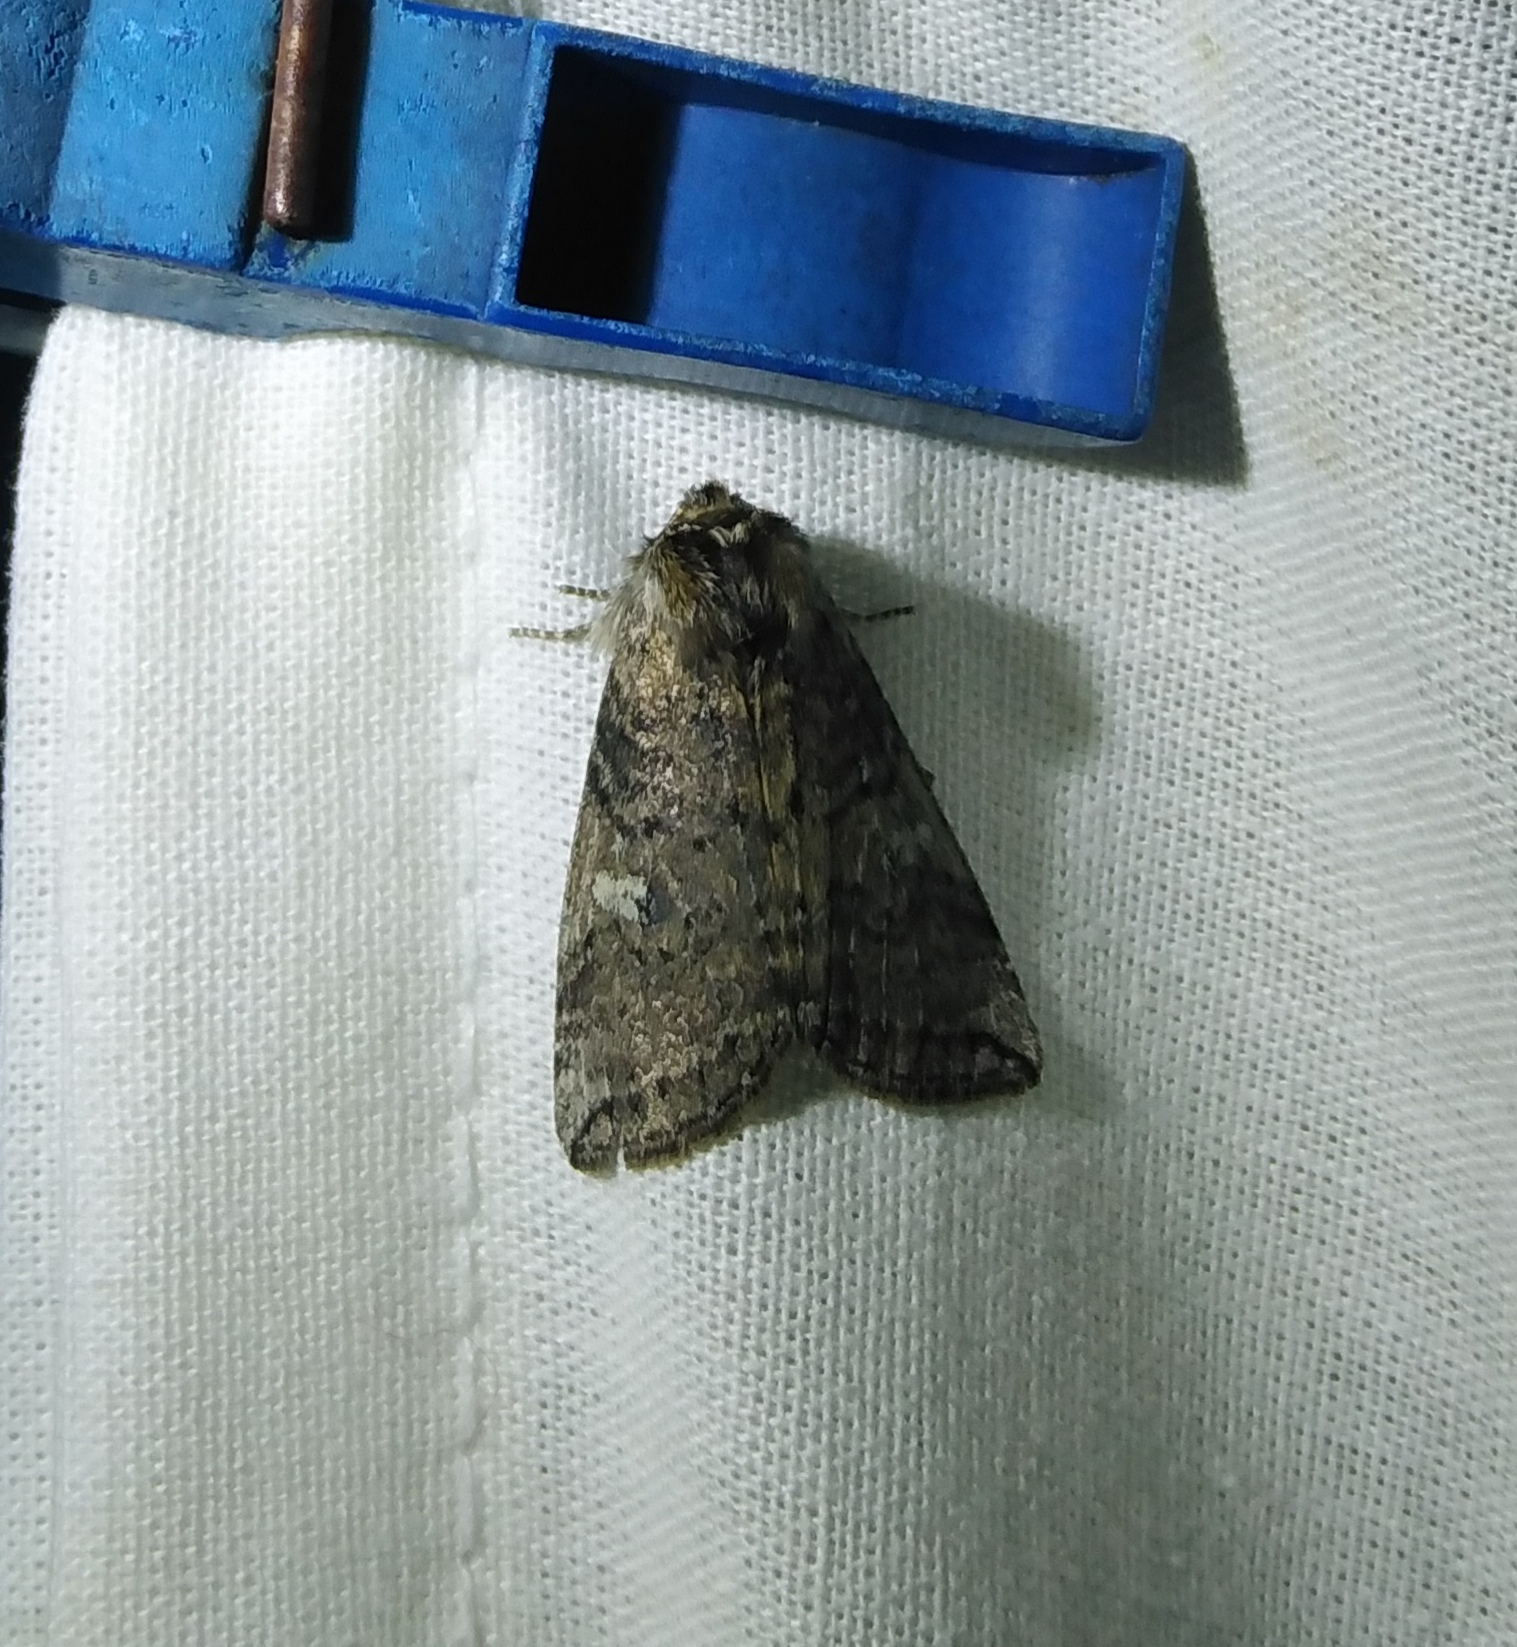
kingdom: Animalia
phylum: Arthropoda
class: Insecta
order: Lepidoptera
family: Drepanidae
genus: Tethea
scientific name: Tethea or
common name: Poplar lutestring
